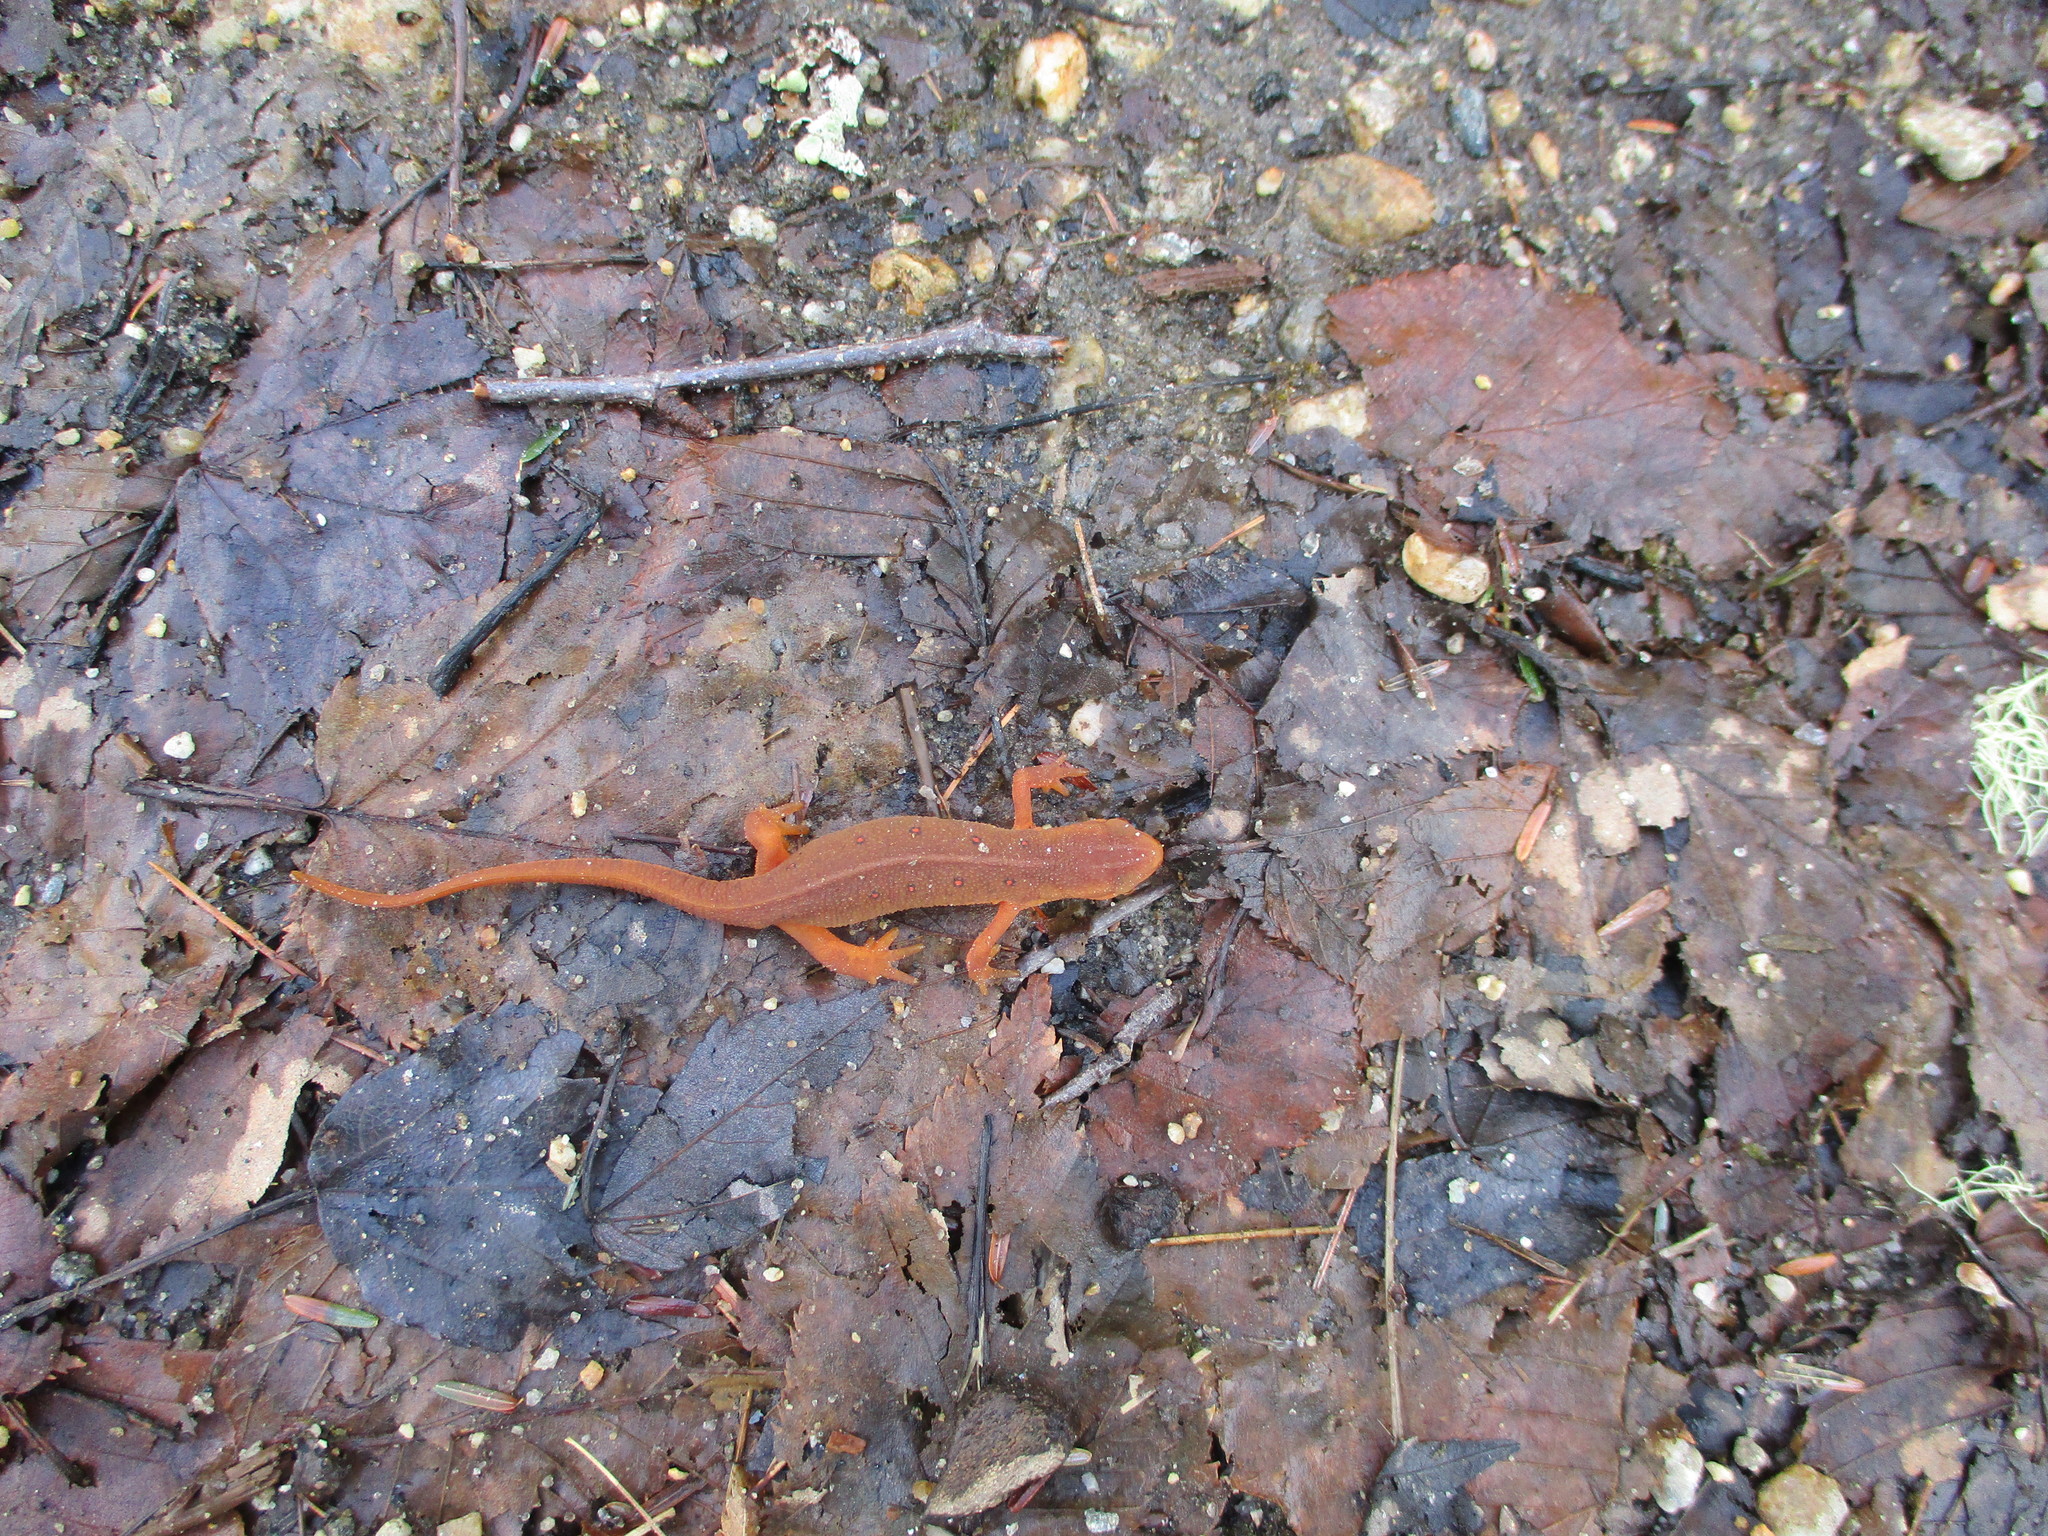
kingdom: Animalia
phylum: Chordata
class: Amphibia
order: Caudata
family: Salamandridae
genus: Notophthalmus
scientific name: Notophthalmus viridescens
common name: Eastern newt
